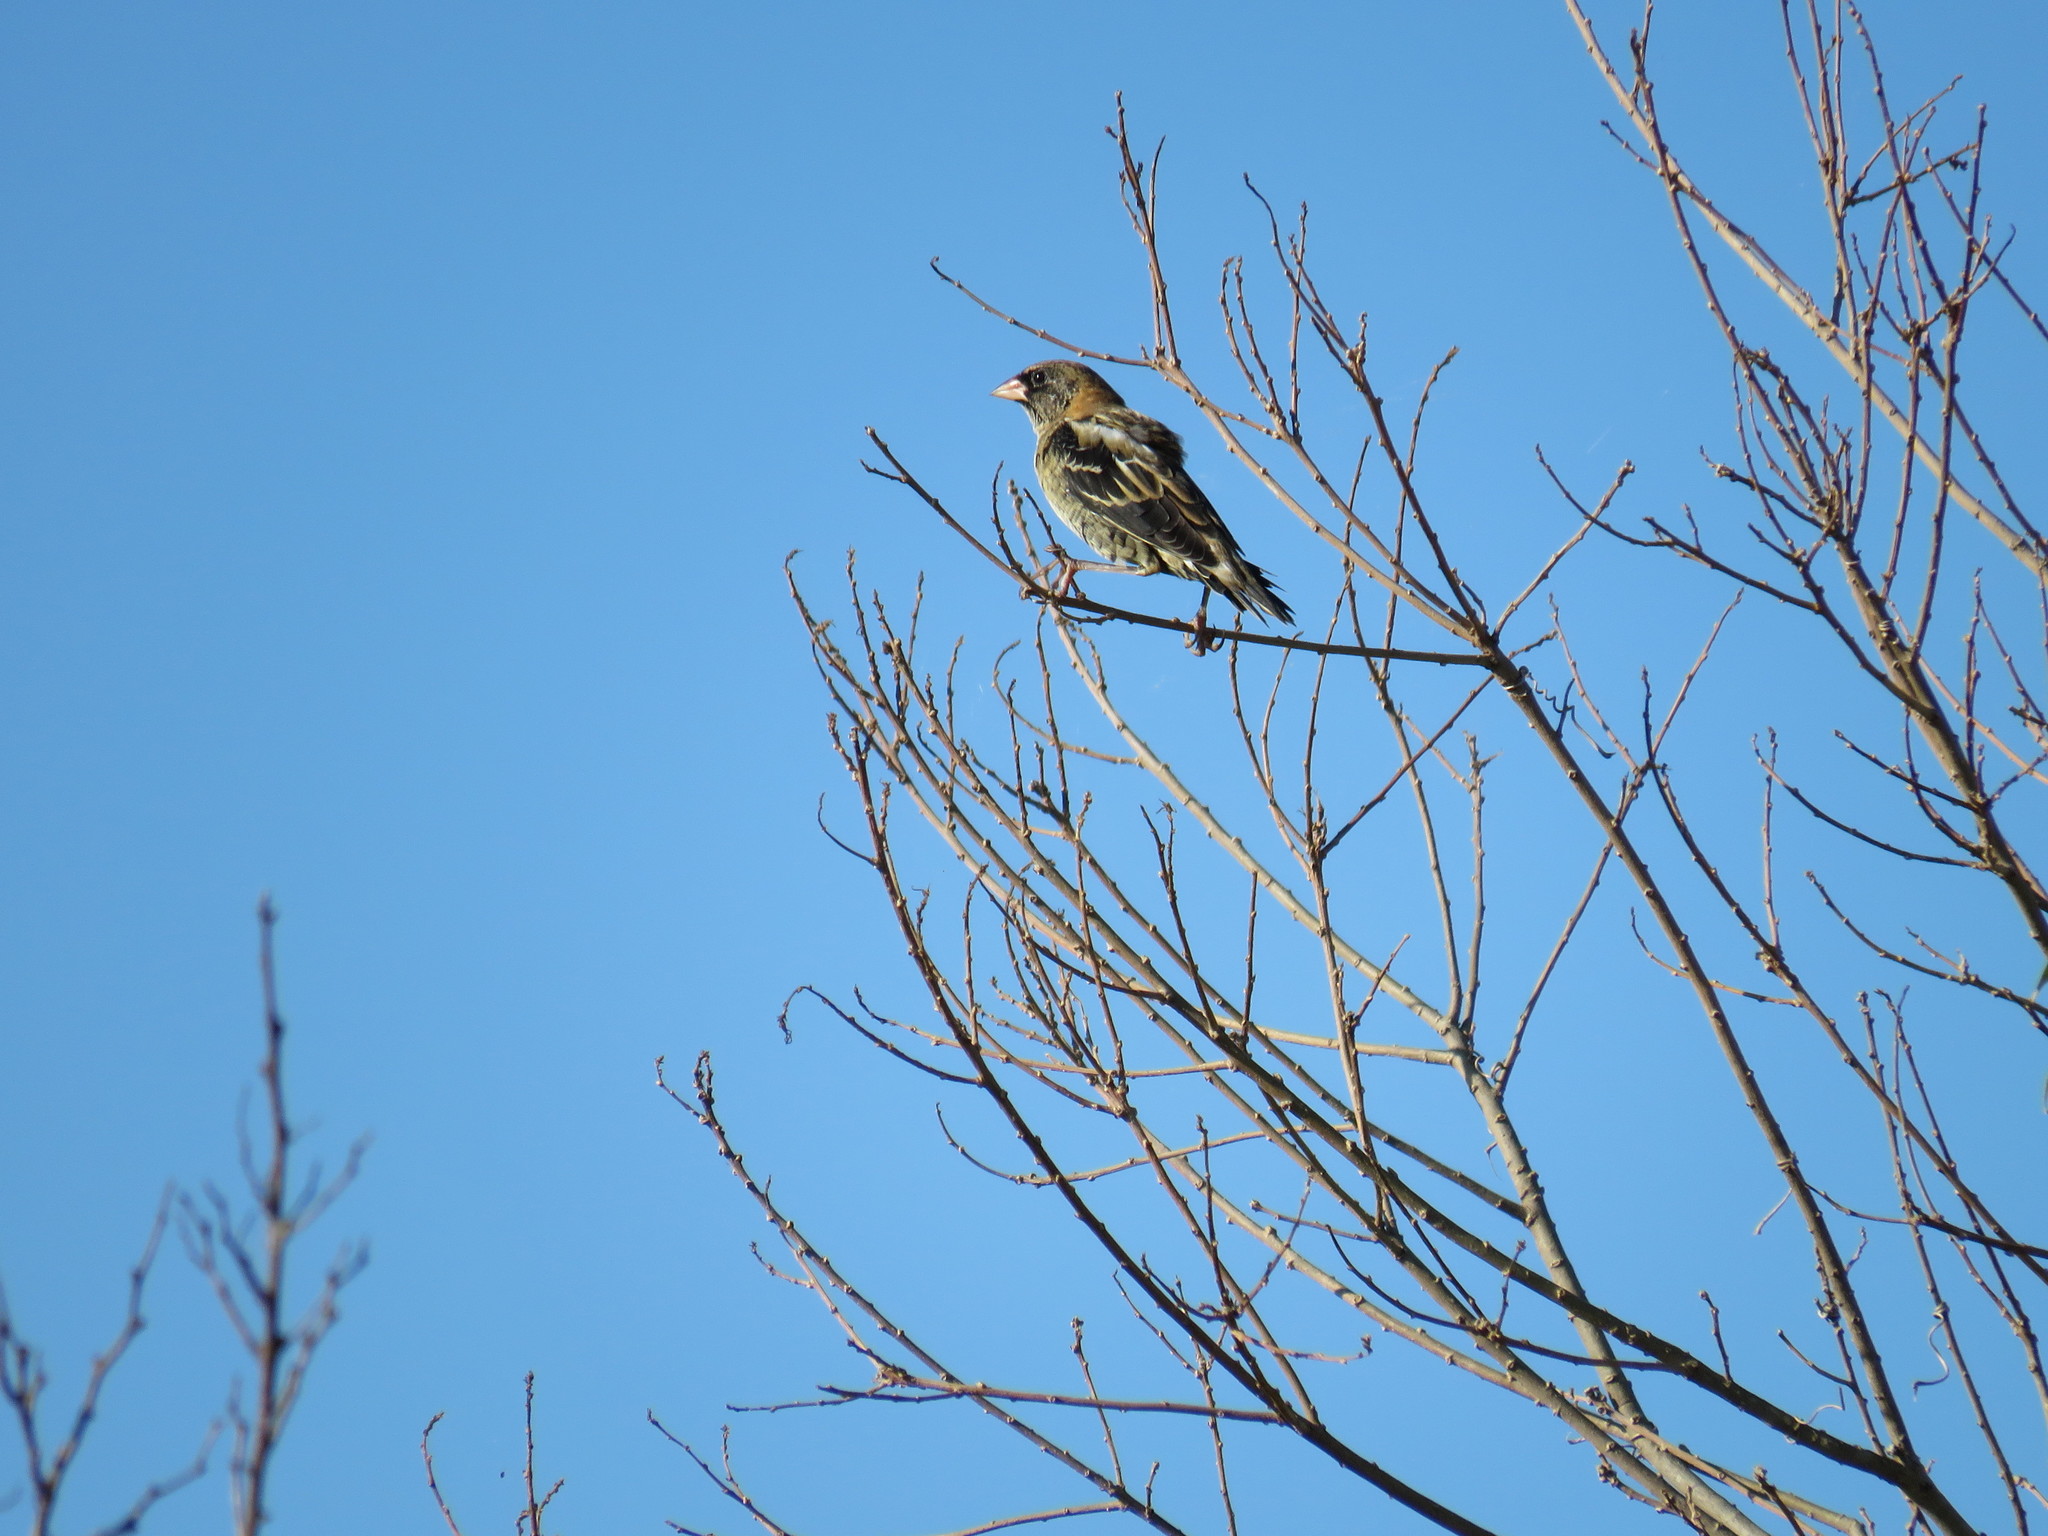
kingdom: Animalia
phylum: Chordata
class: Aves
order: Passeriformes
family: Icteridae
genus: Dolichonyx
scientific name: Dolichonyx oryzivorus
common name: Bobolink
